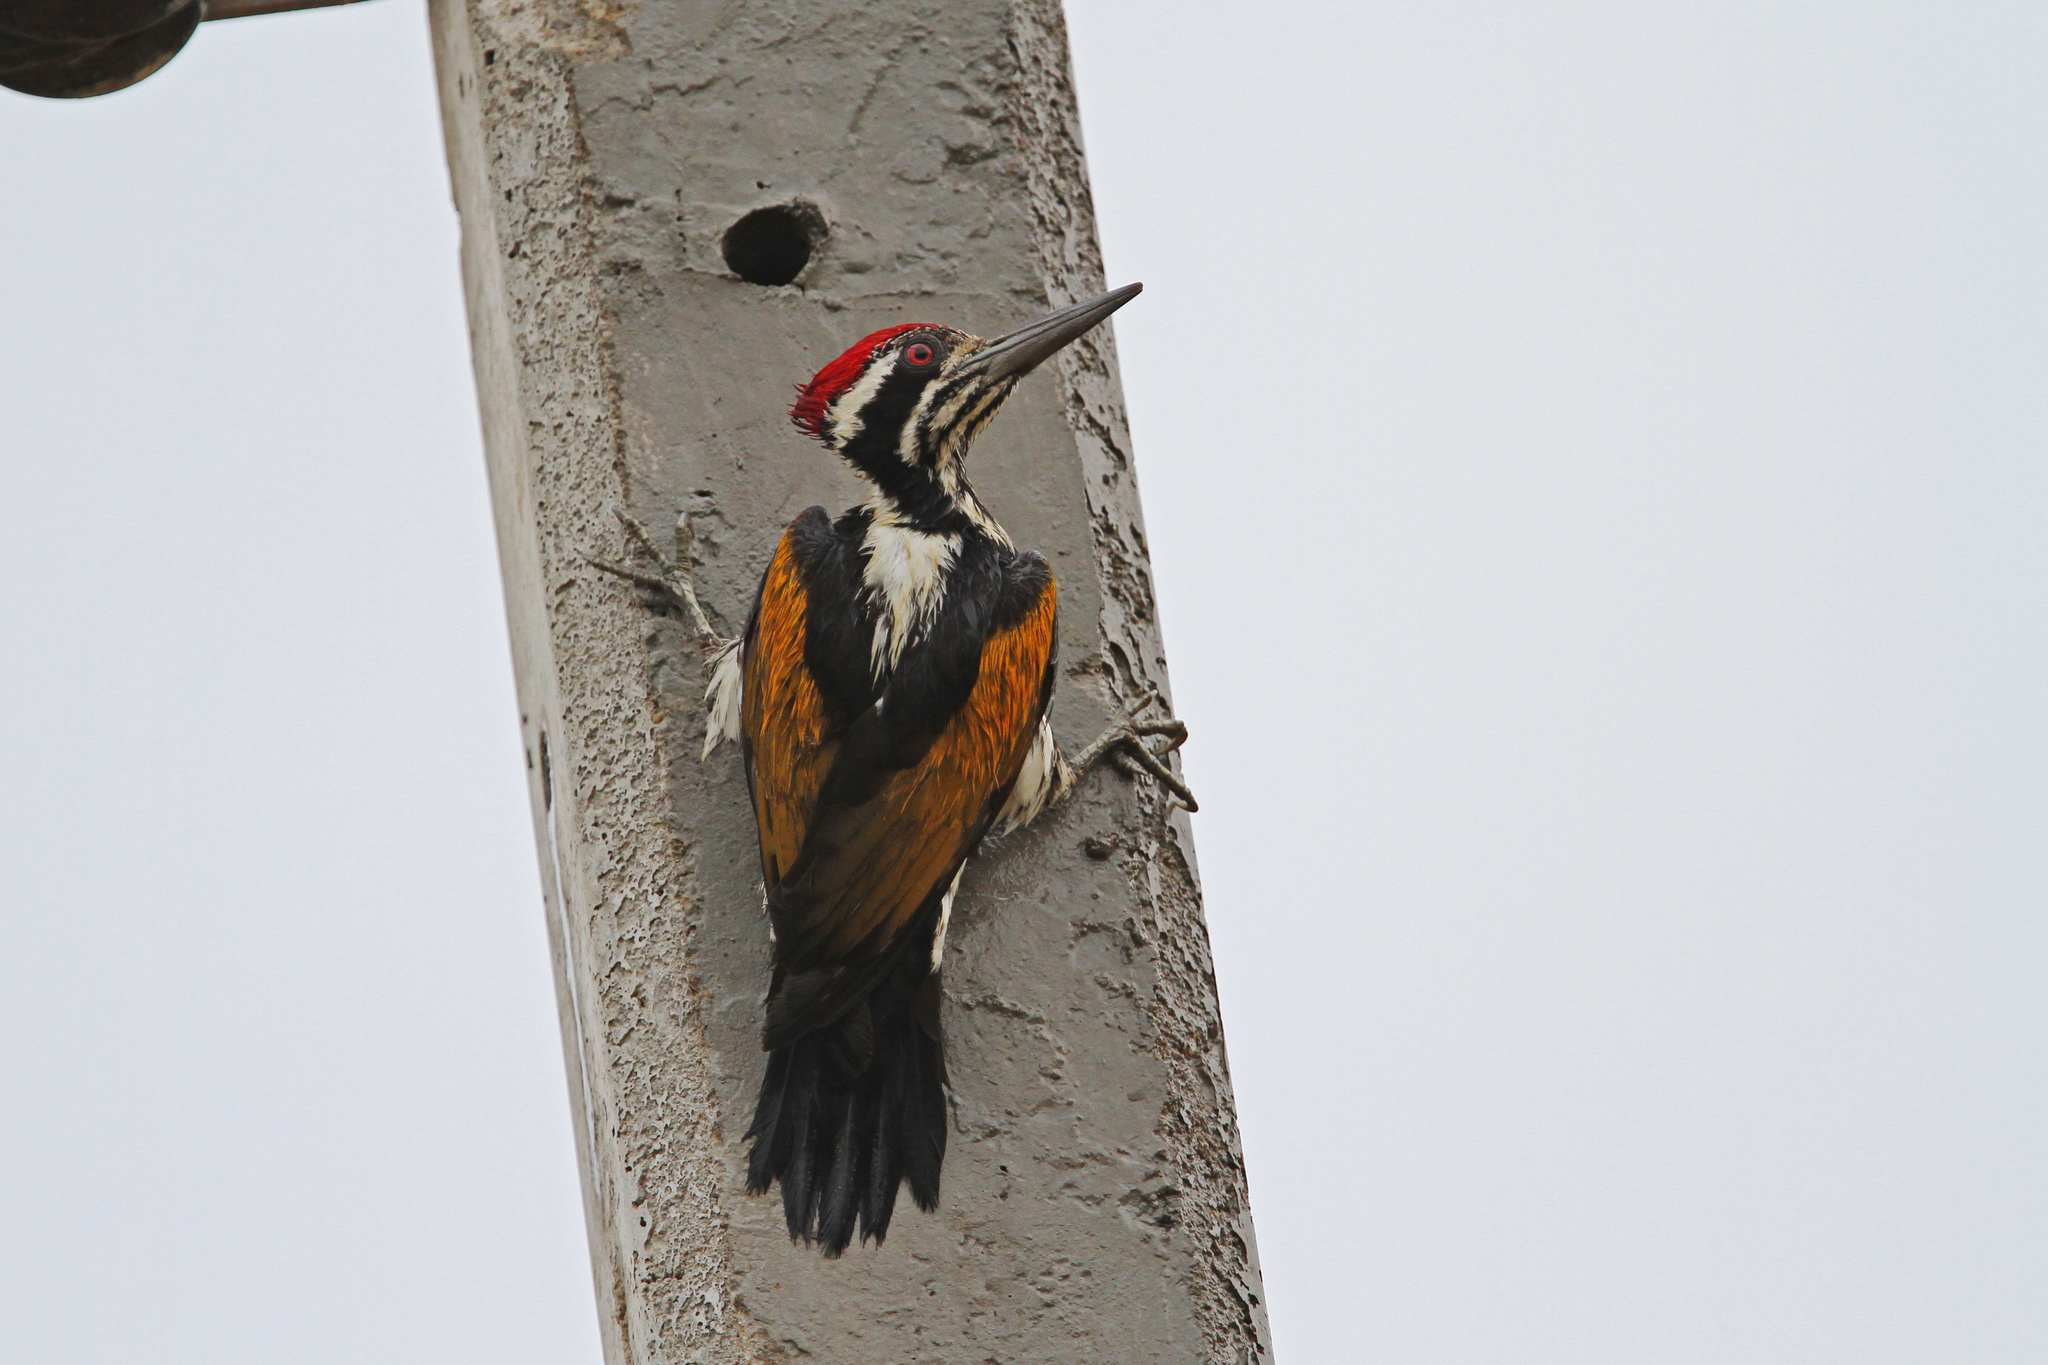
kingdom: Animalia
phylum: Chordata
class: Aves
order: Piciformes
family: Picidae
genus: Chrysocolaptes
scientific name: Chrysocolaptes festivus
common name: White-naped woodpecker
